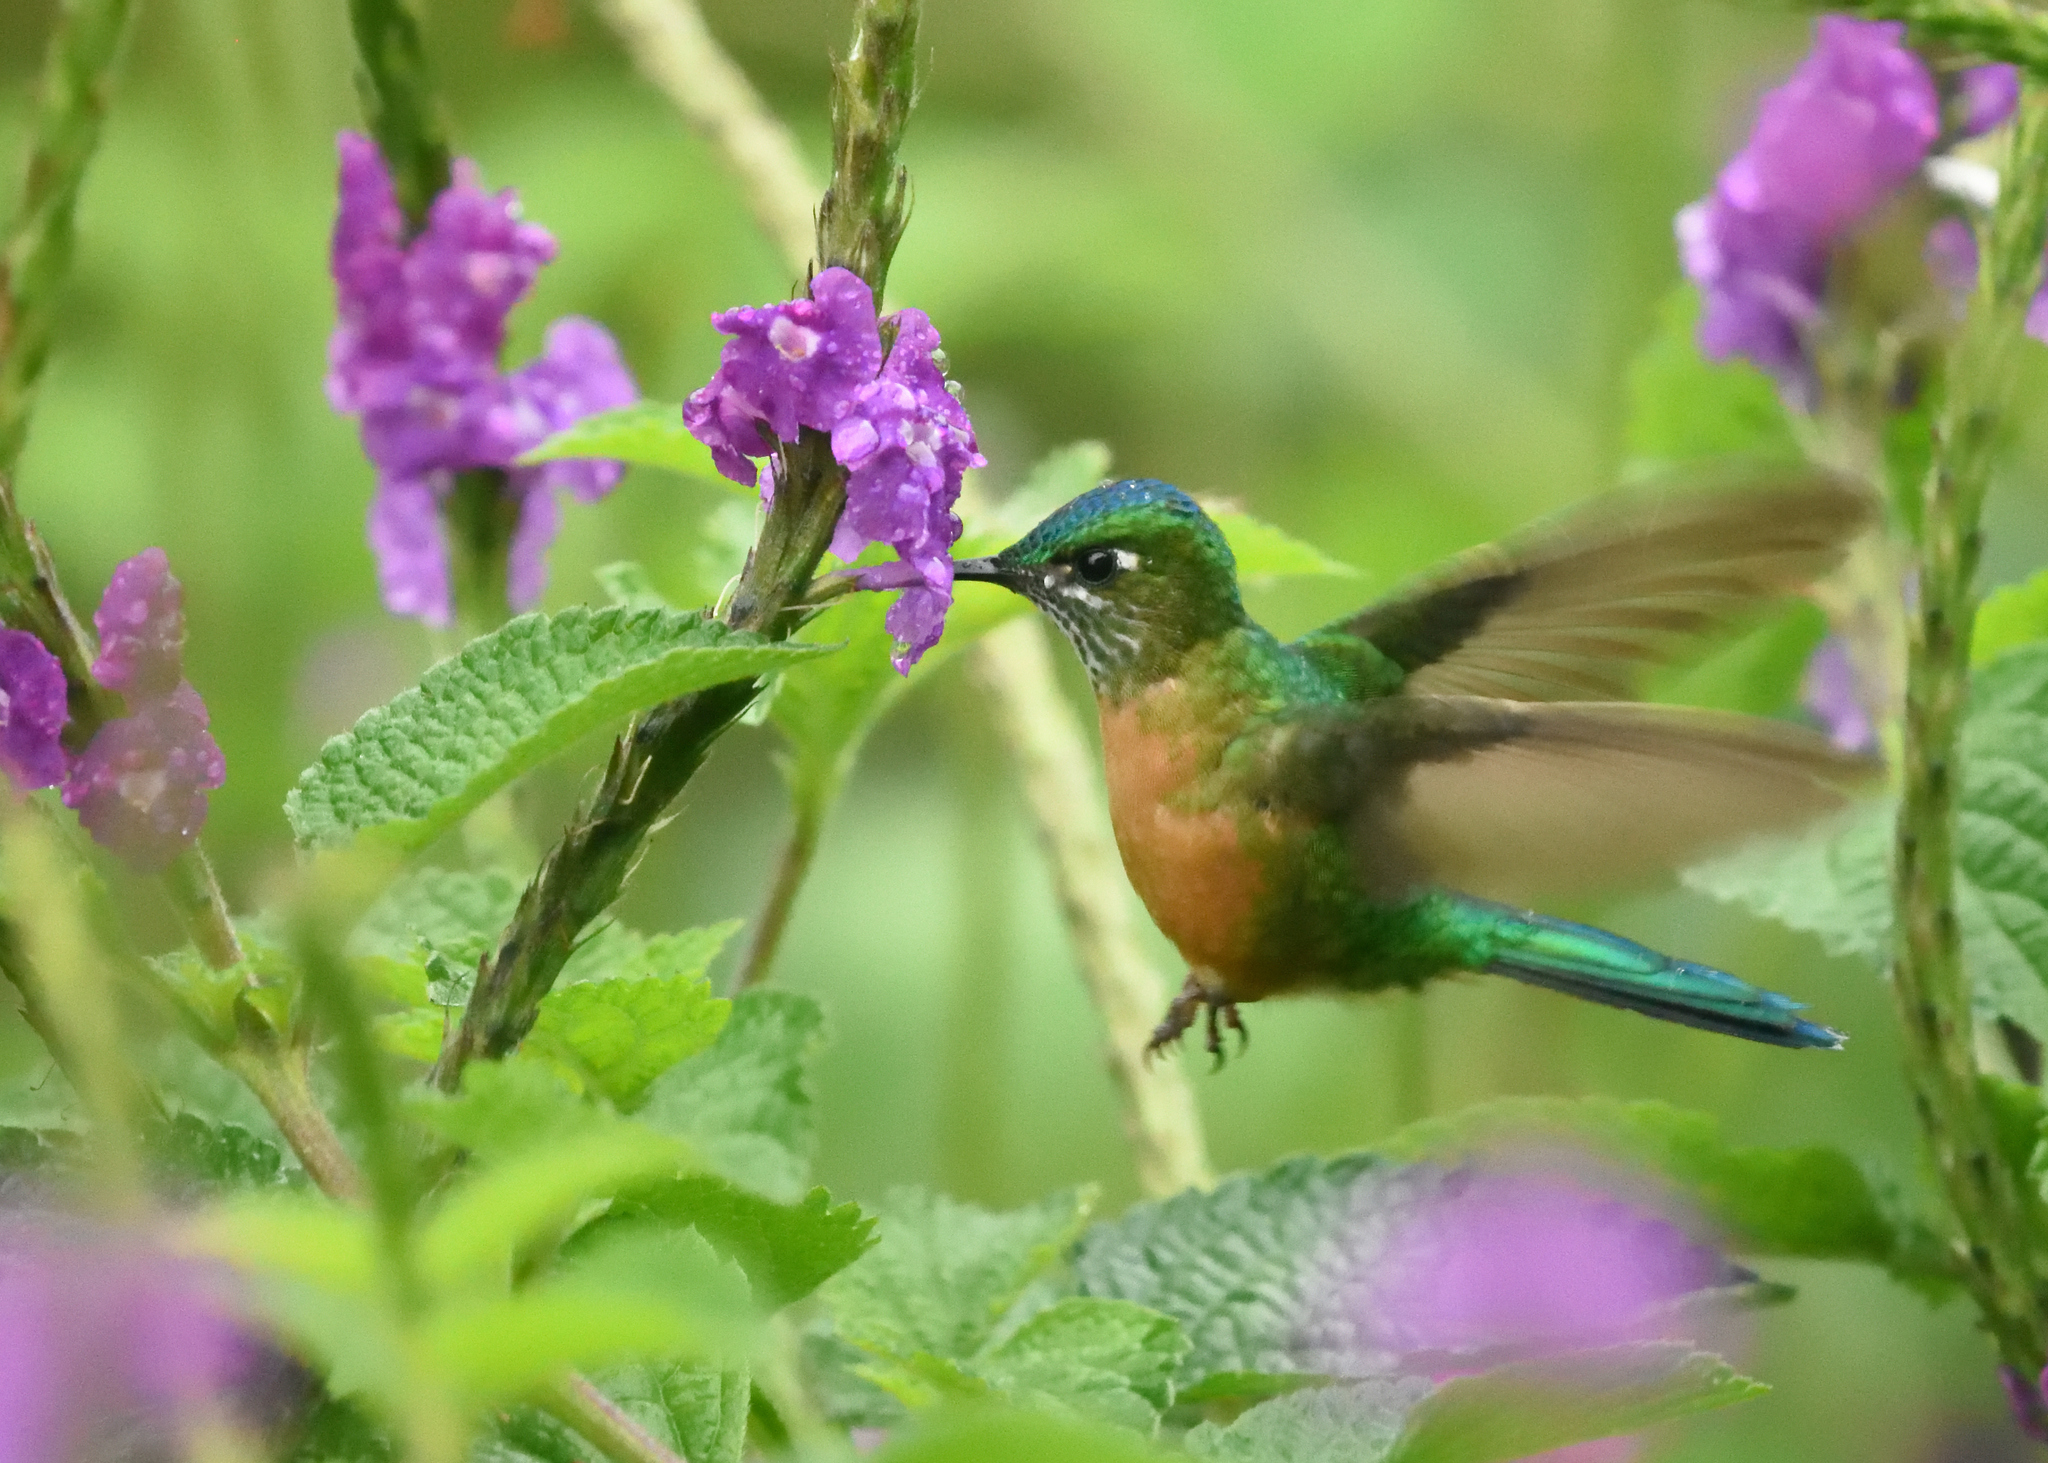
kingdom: Animalia
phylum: Chordata
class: Aves
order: Apodiformes
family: Trochilidae
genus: Aglaiocercus
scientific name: Aglaiocercus kingii
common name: Long-tailed sylph
